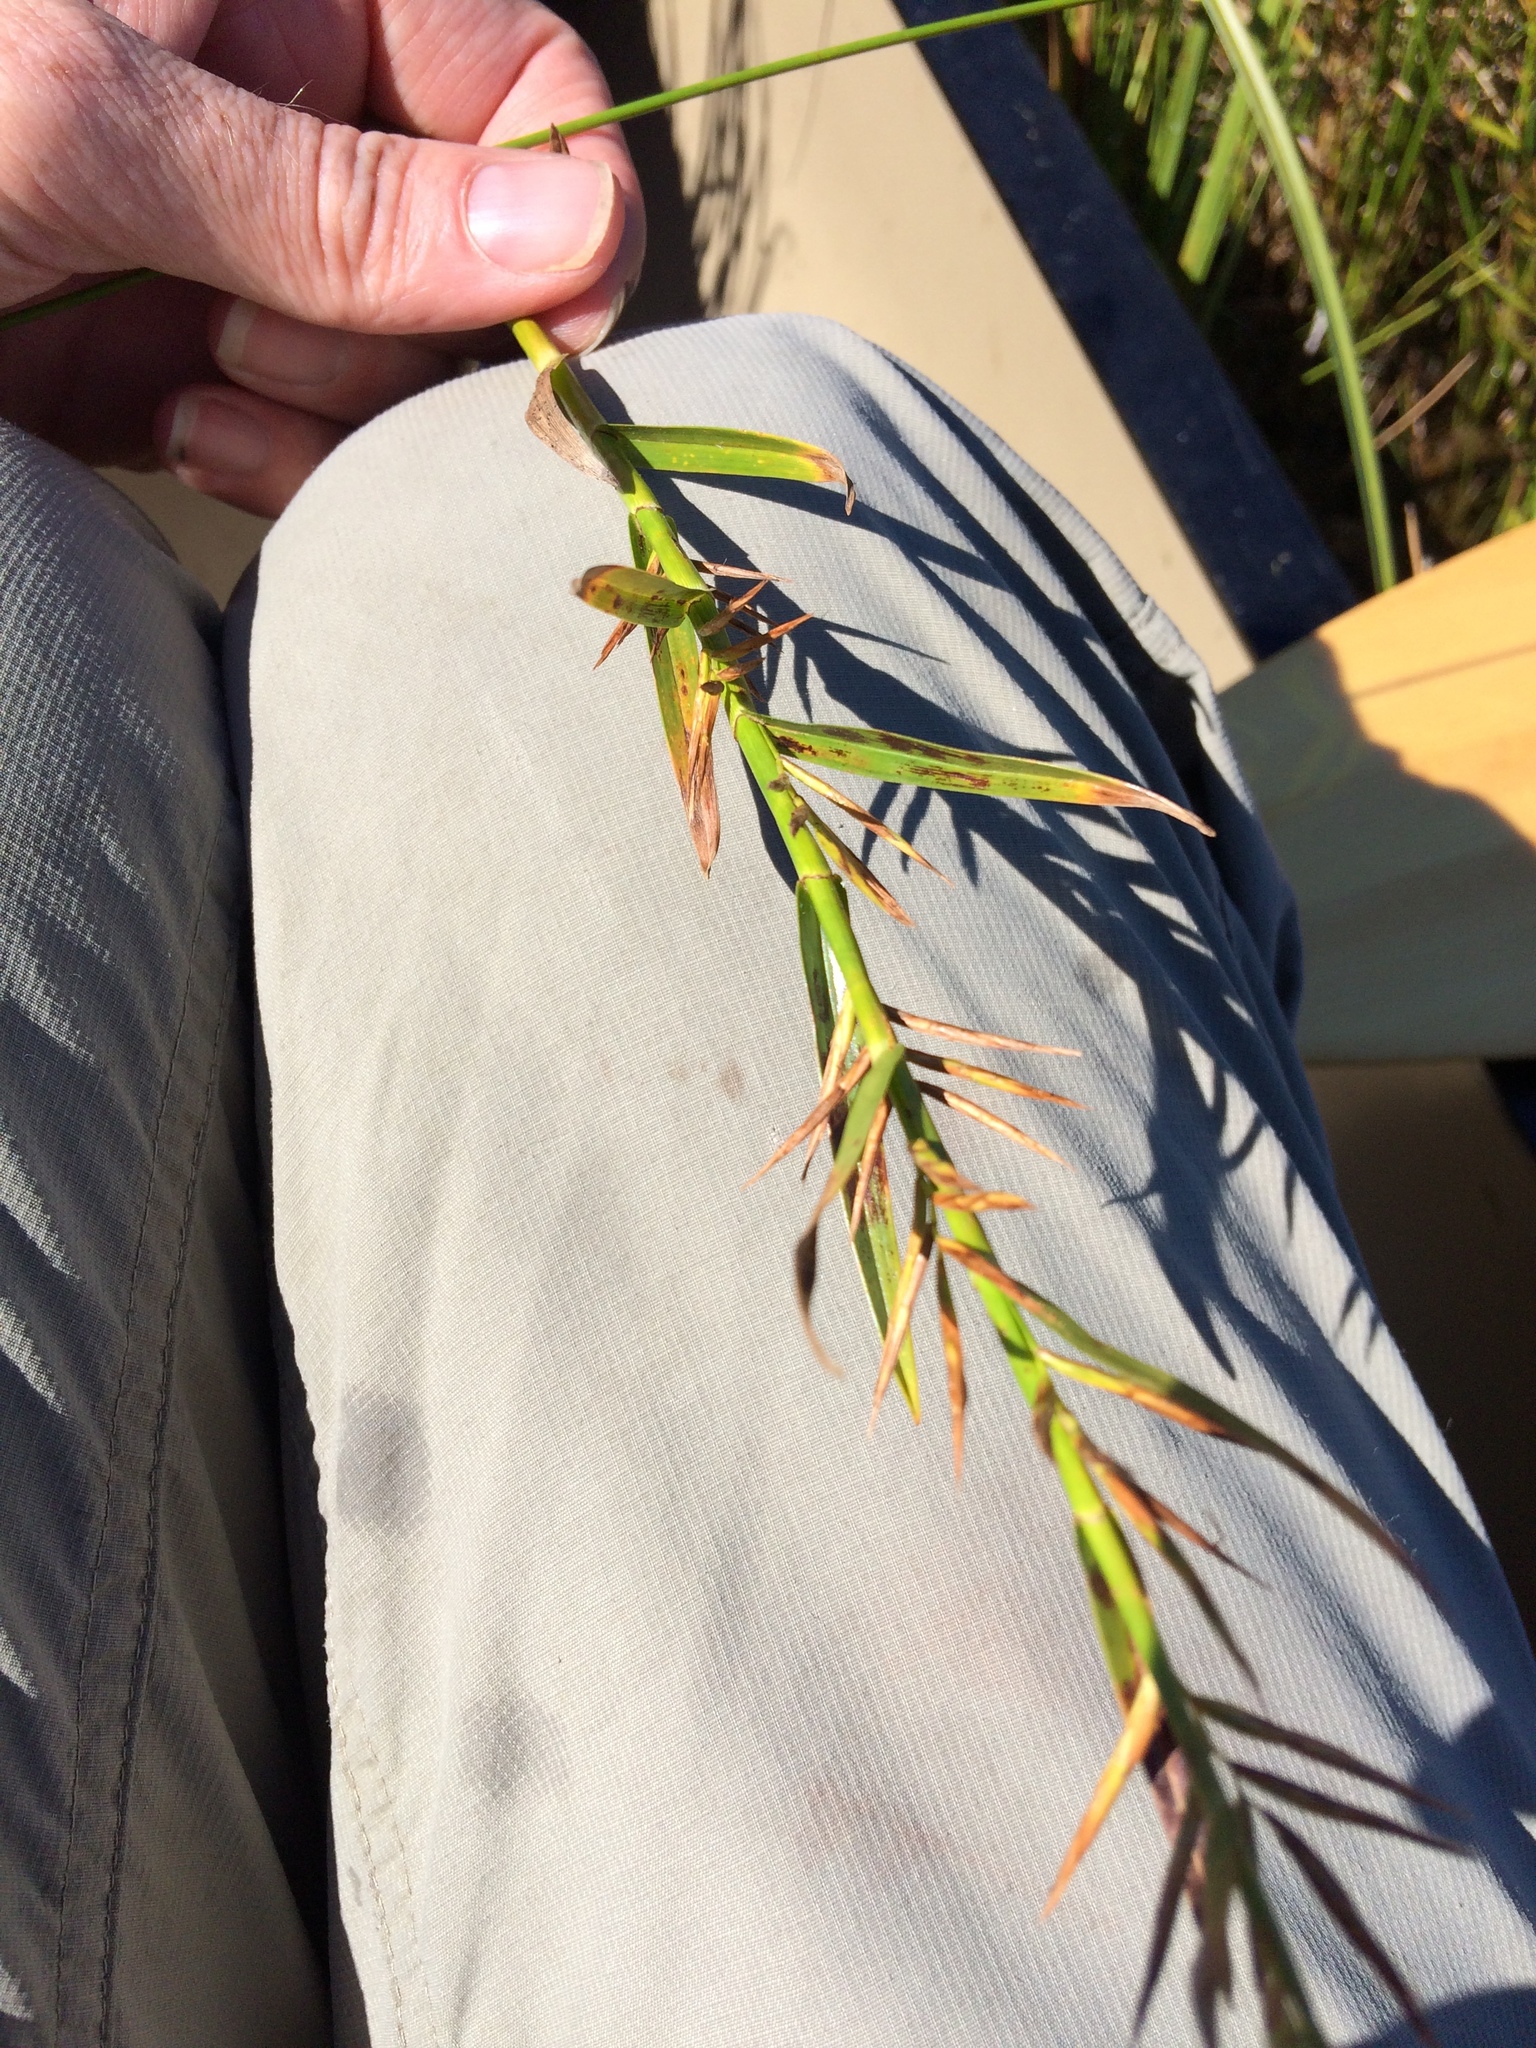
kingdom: Plantae
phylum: Tracheophyta
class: Liliopsida
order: Poales
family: Cyperaceae
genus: Dulichium
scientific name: Dulichium arundinaceum
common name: Three-way sedge
